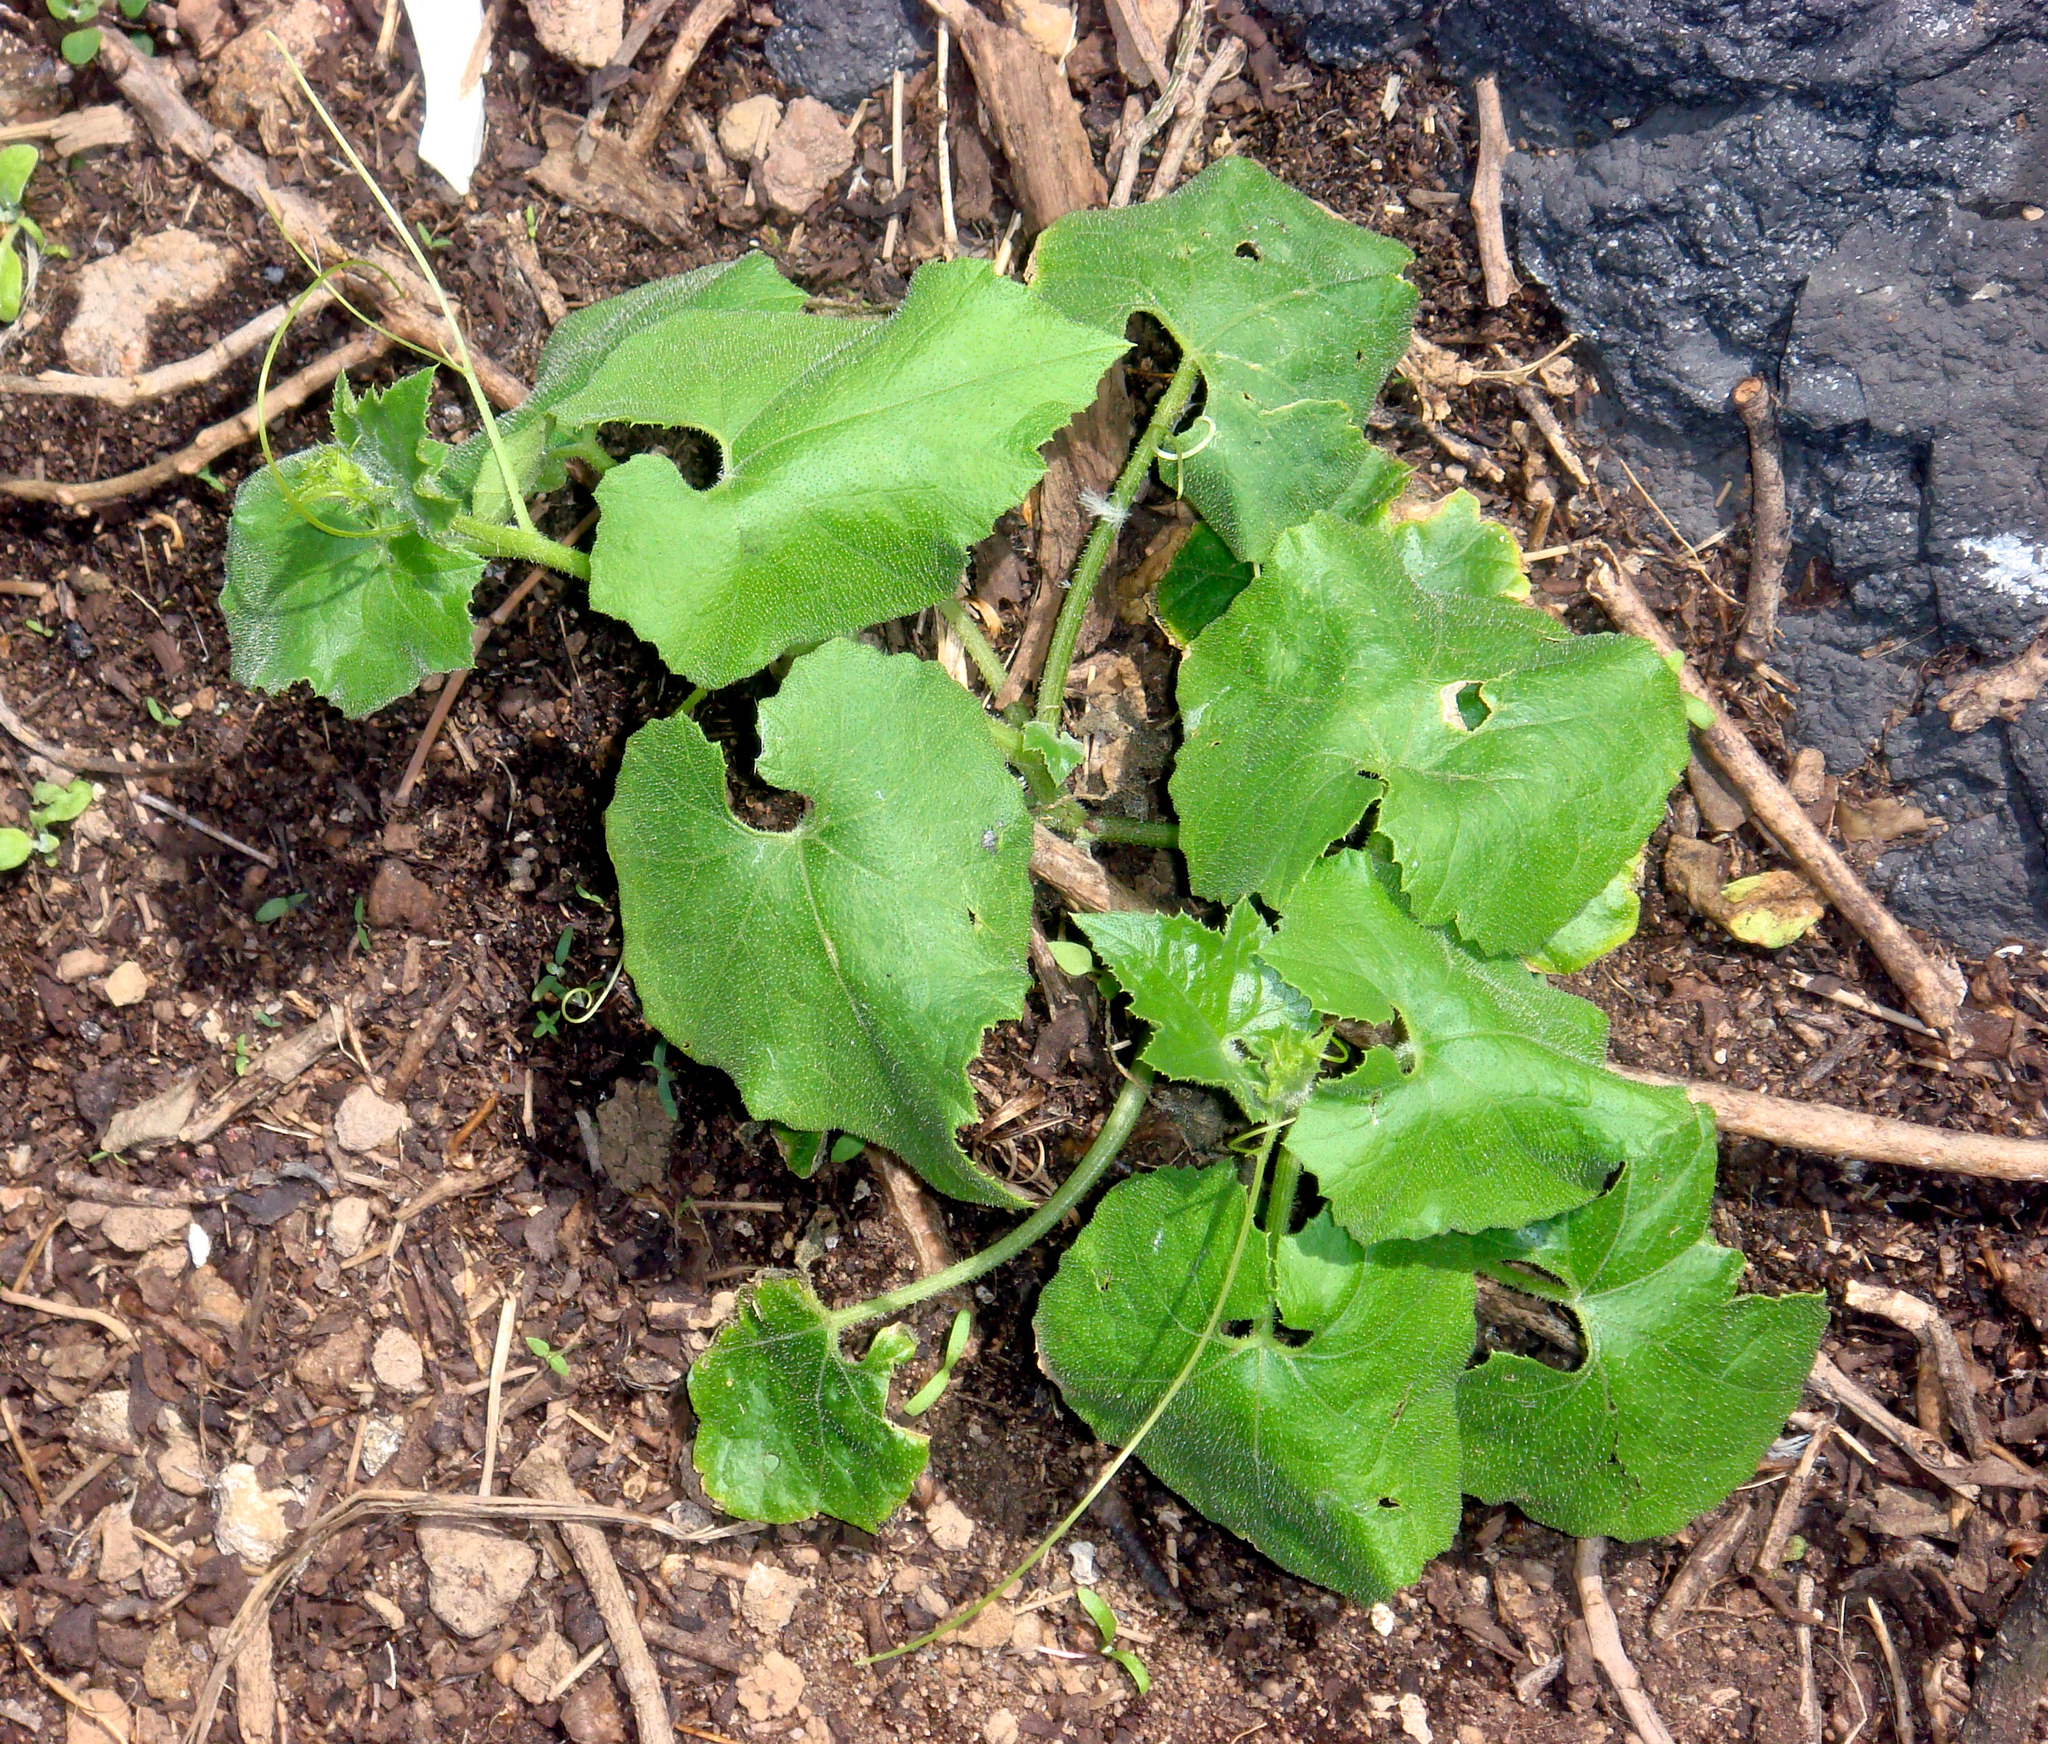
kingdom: Plantae
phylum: Tracheophyta
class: Magnoliopsida
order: Cucurbitales
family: Cucurbitaceae
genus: Sicyos
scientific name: Sicyos mawhai
